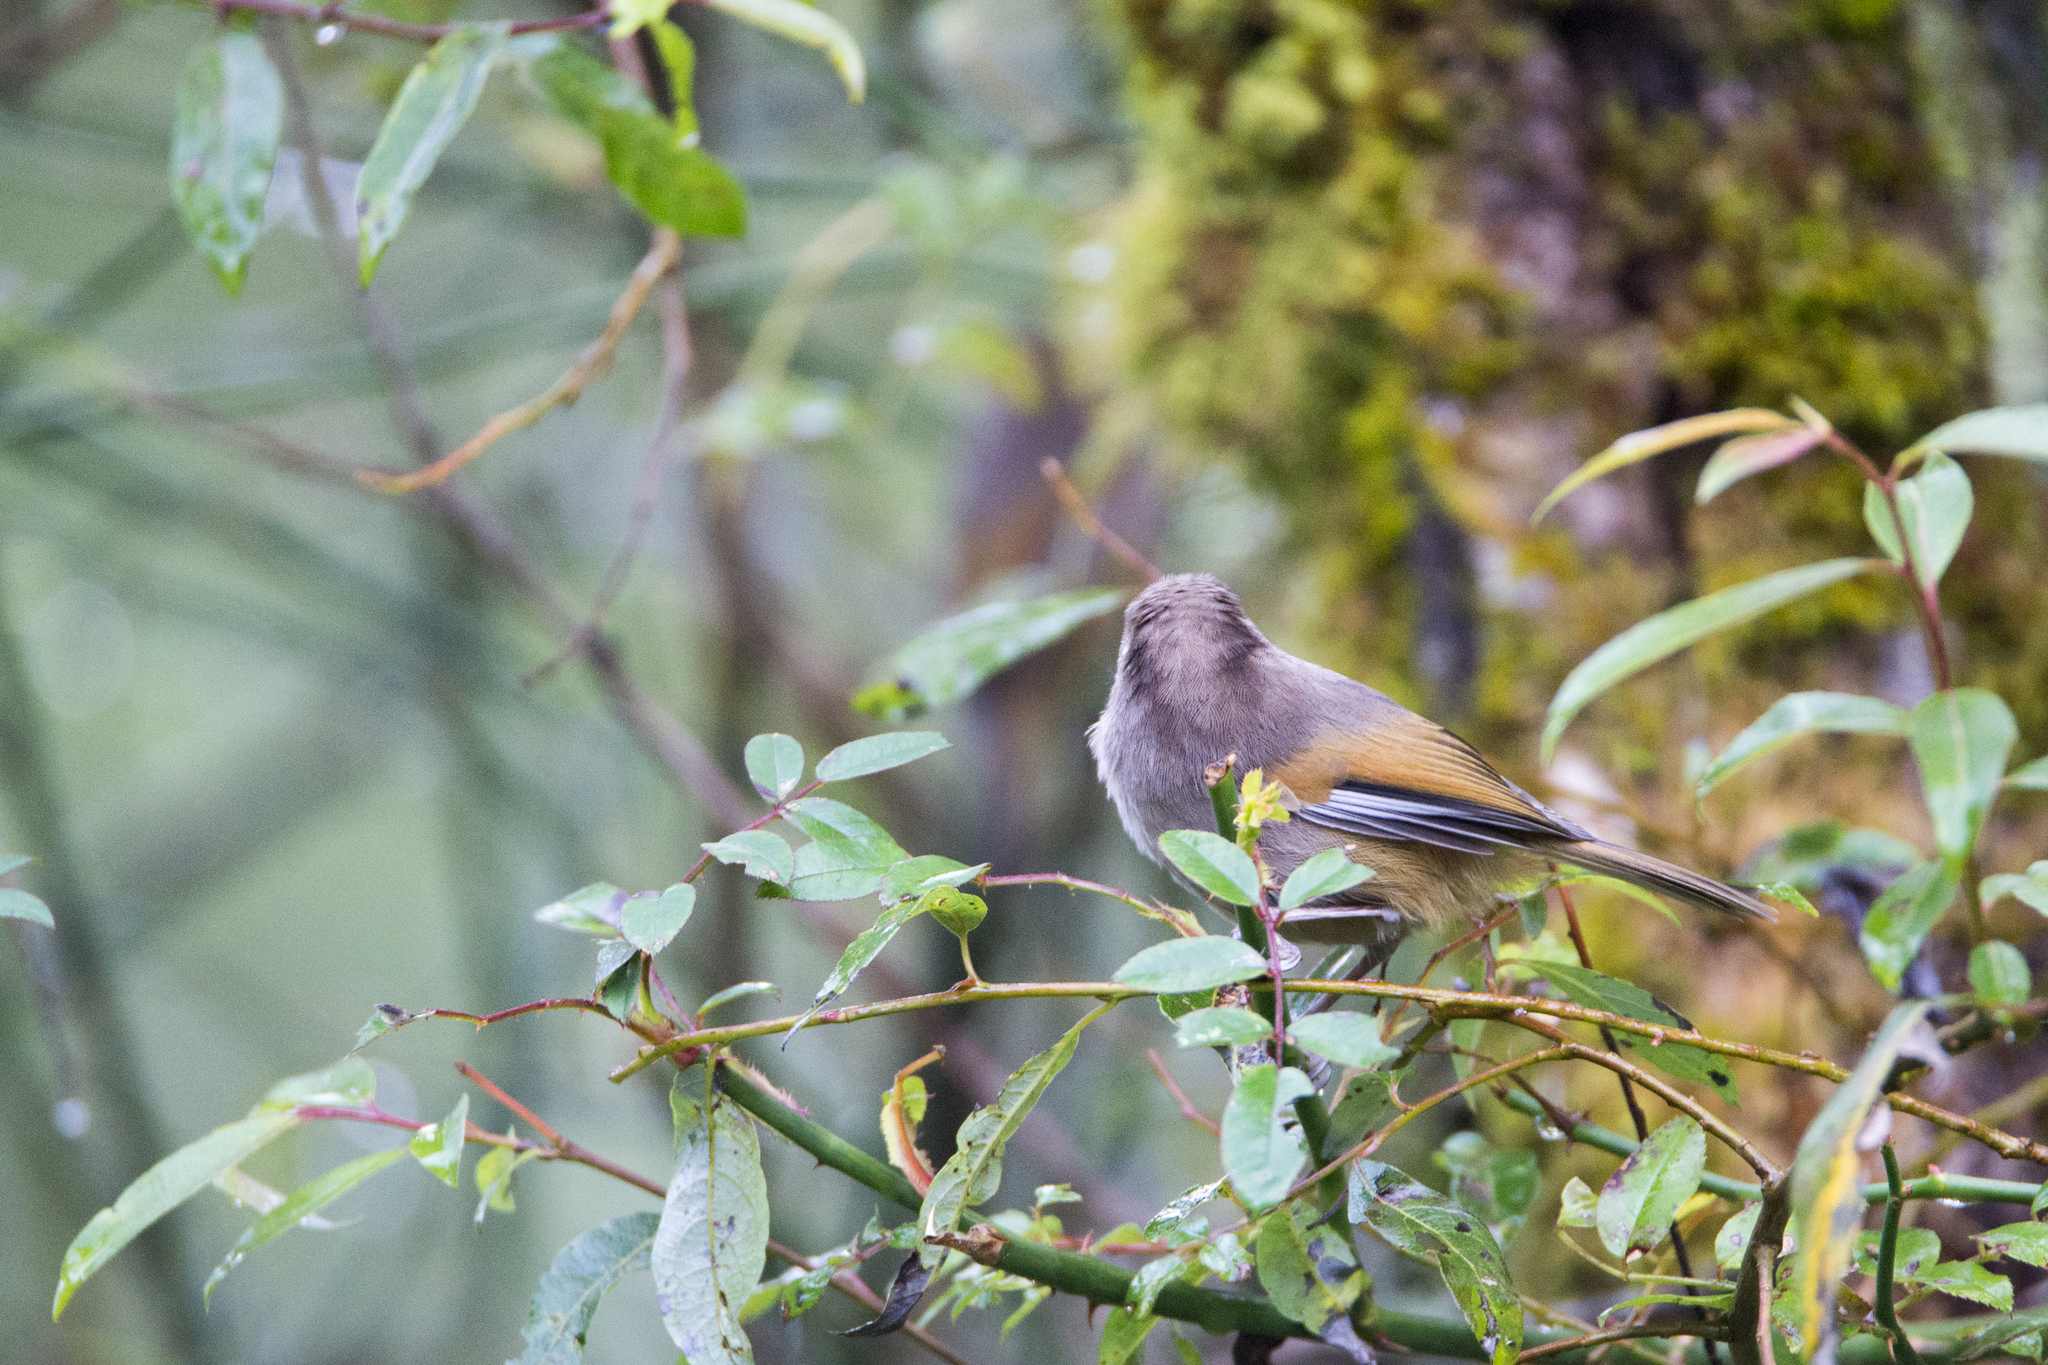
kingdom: Animalia
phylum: Chordata
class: Aves
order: Passeriformes
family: Sylviidae
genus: Fulvetta
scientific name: Fulvetta formosana
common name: Taiwan fulvetta
